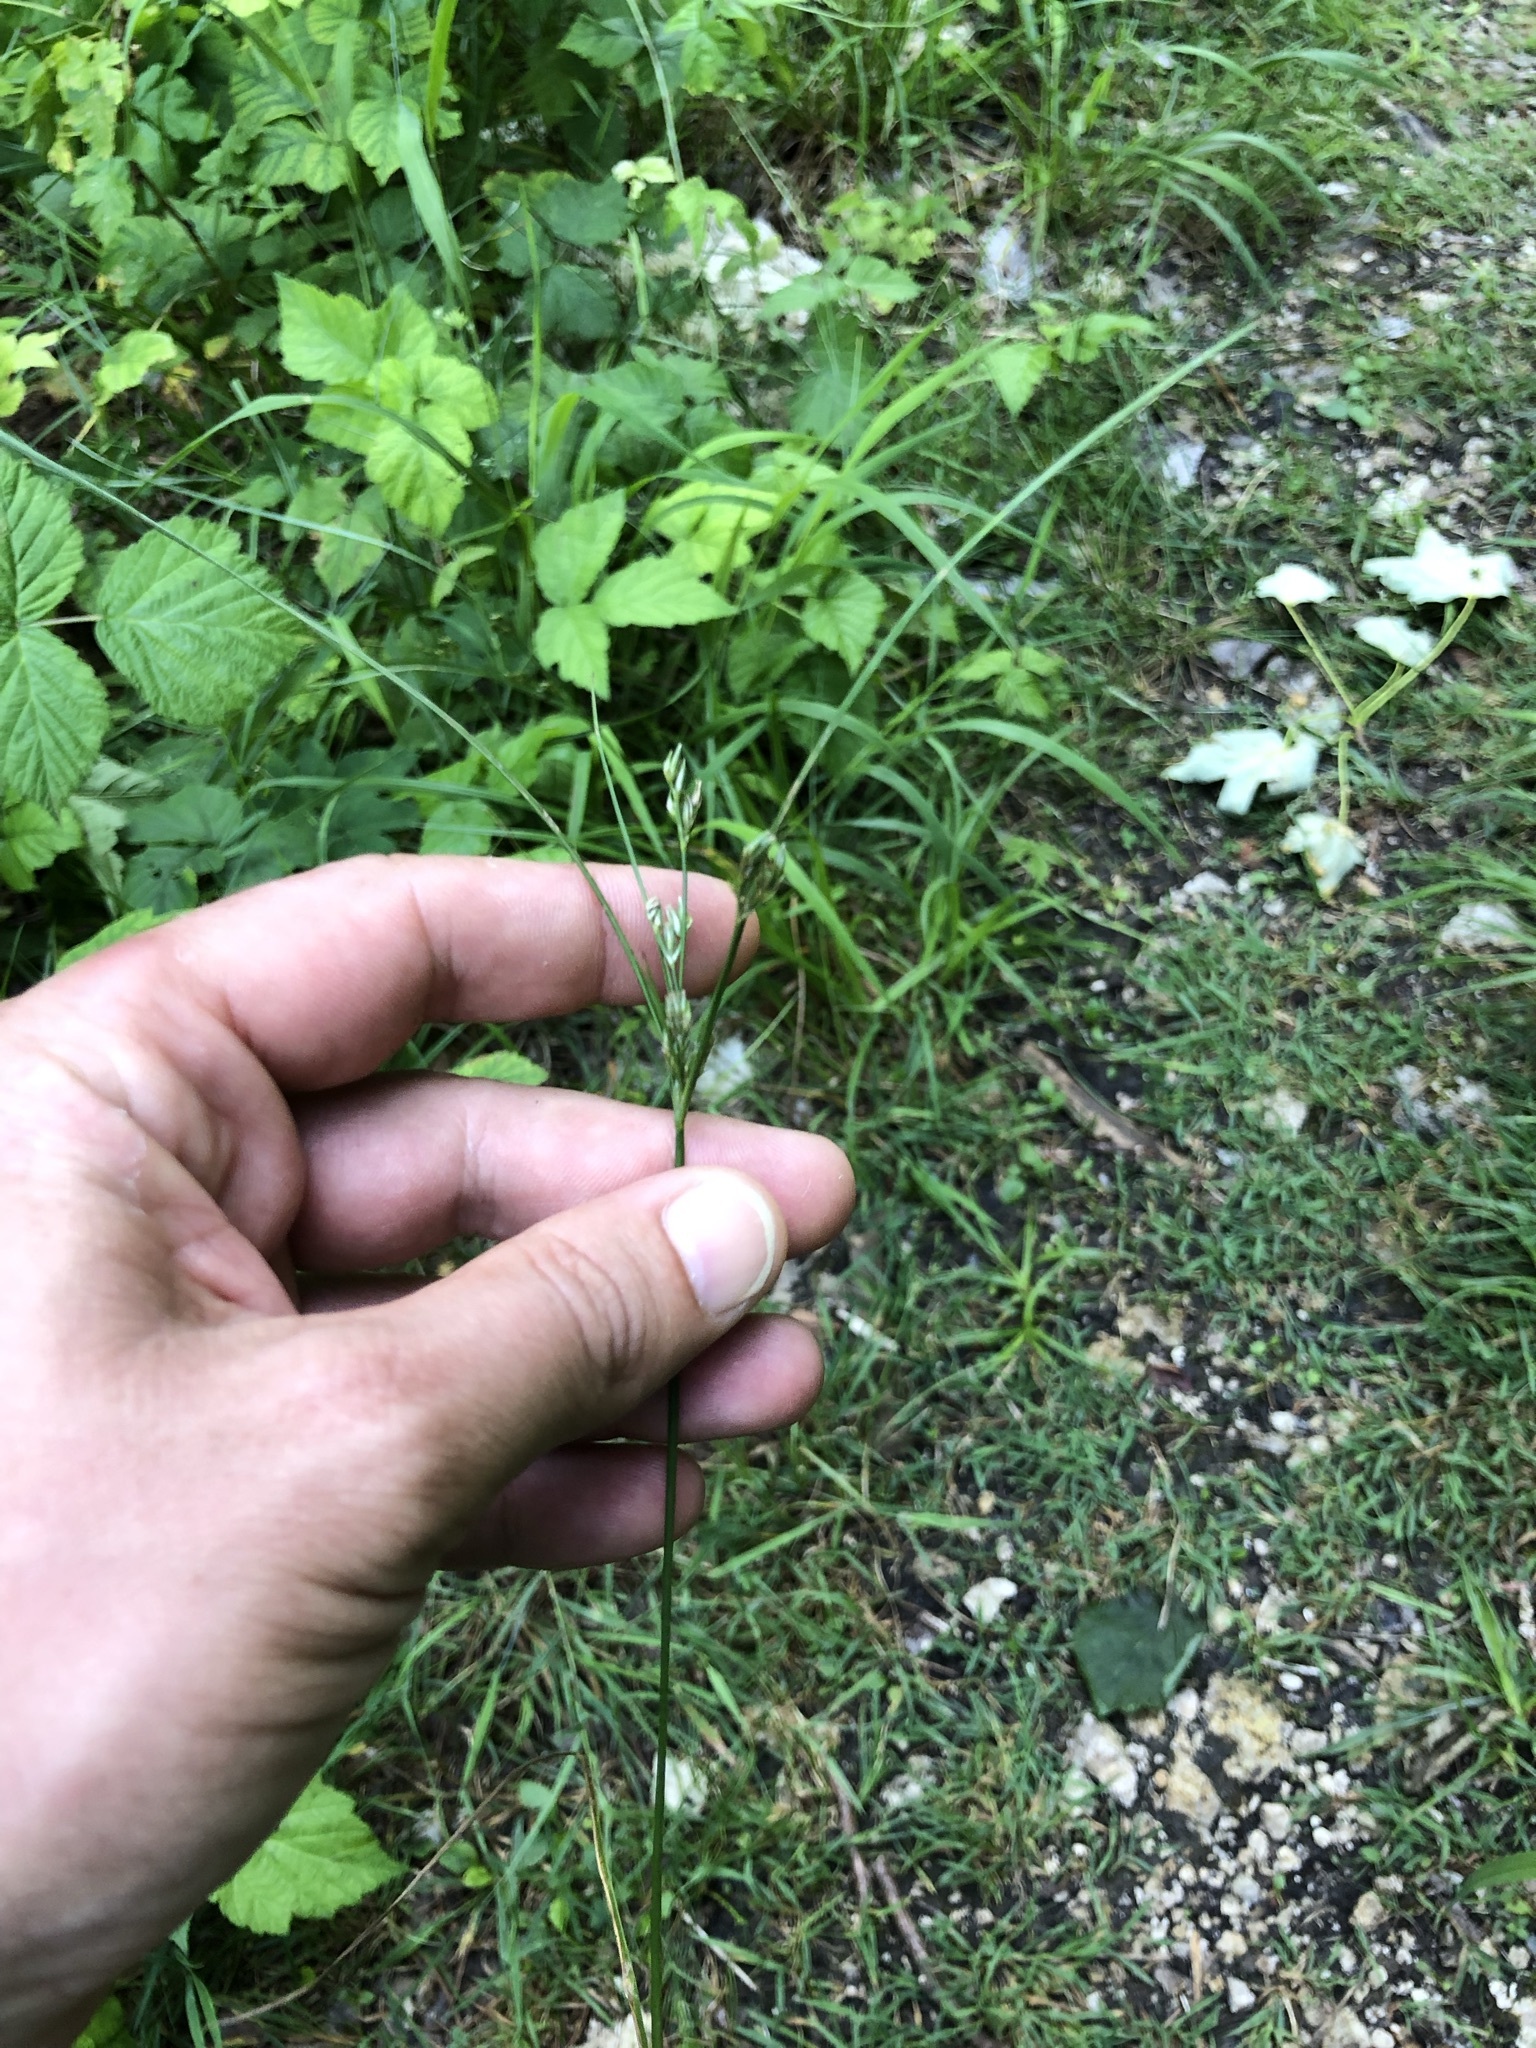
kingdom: Plantae
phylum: Tracheophyta
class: Liliopsida
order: Poales
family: Juncaceae
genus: Juncus
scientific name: Juncus tenuis
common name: Slender rush
